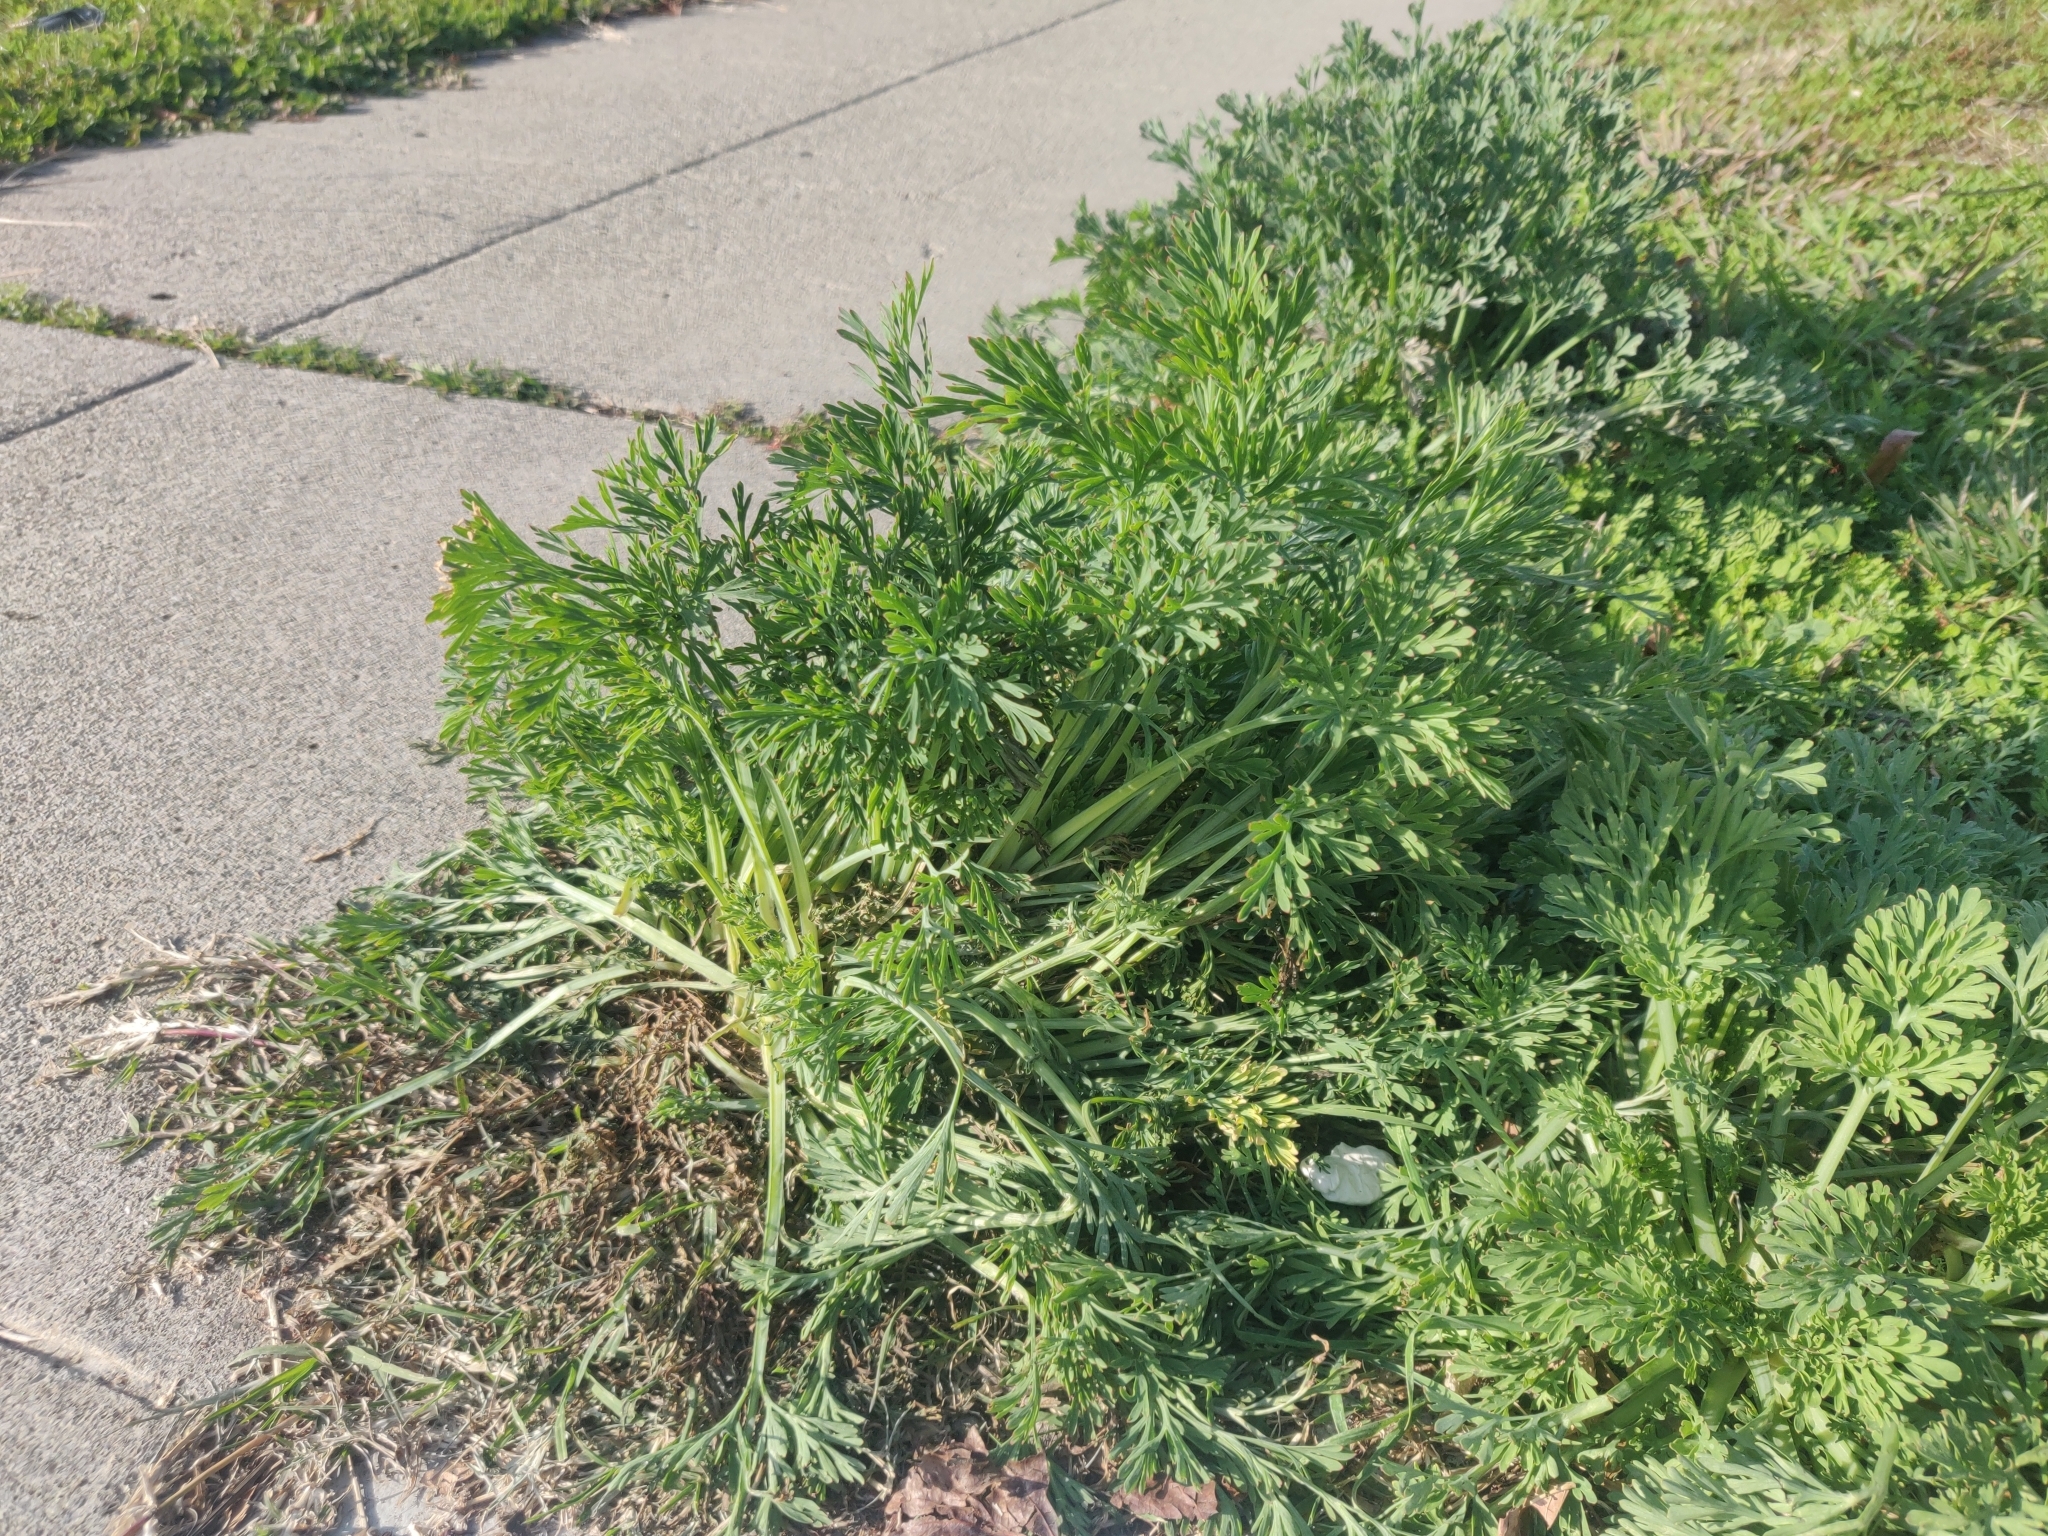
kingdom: Plantae
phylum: Tracheophyta
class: Magnoliopsida
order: Ranunculales
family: Papaveraceae
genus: Eschscholzia
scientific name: Eschscholzia californica
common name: California poppy
